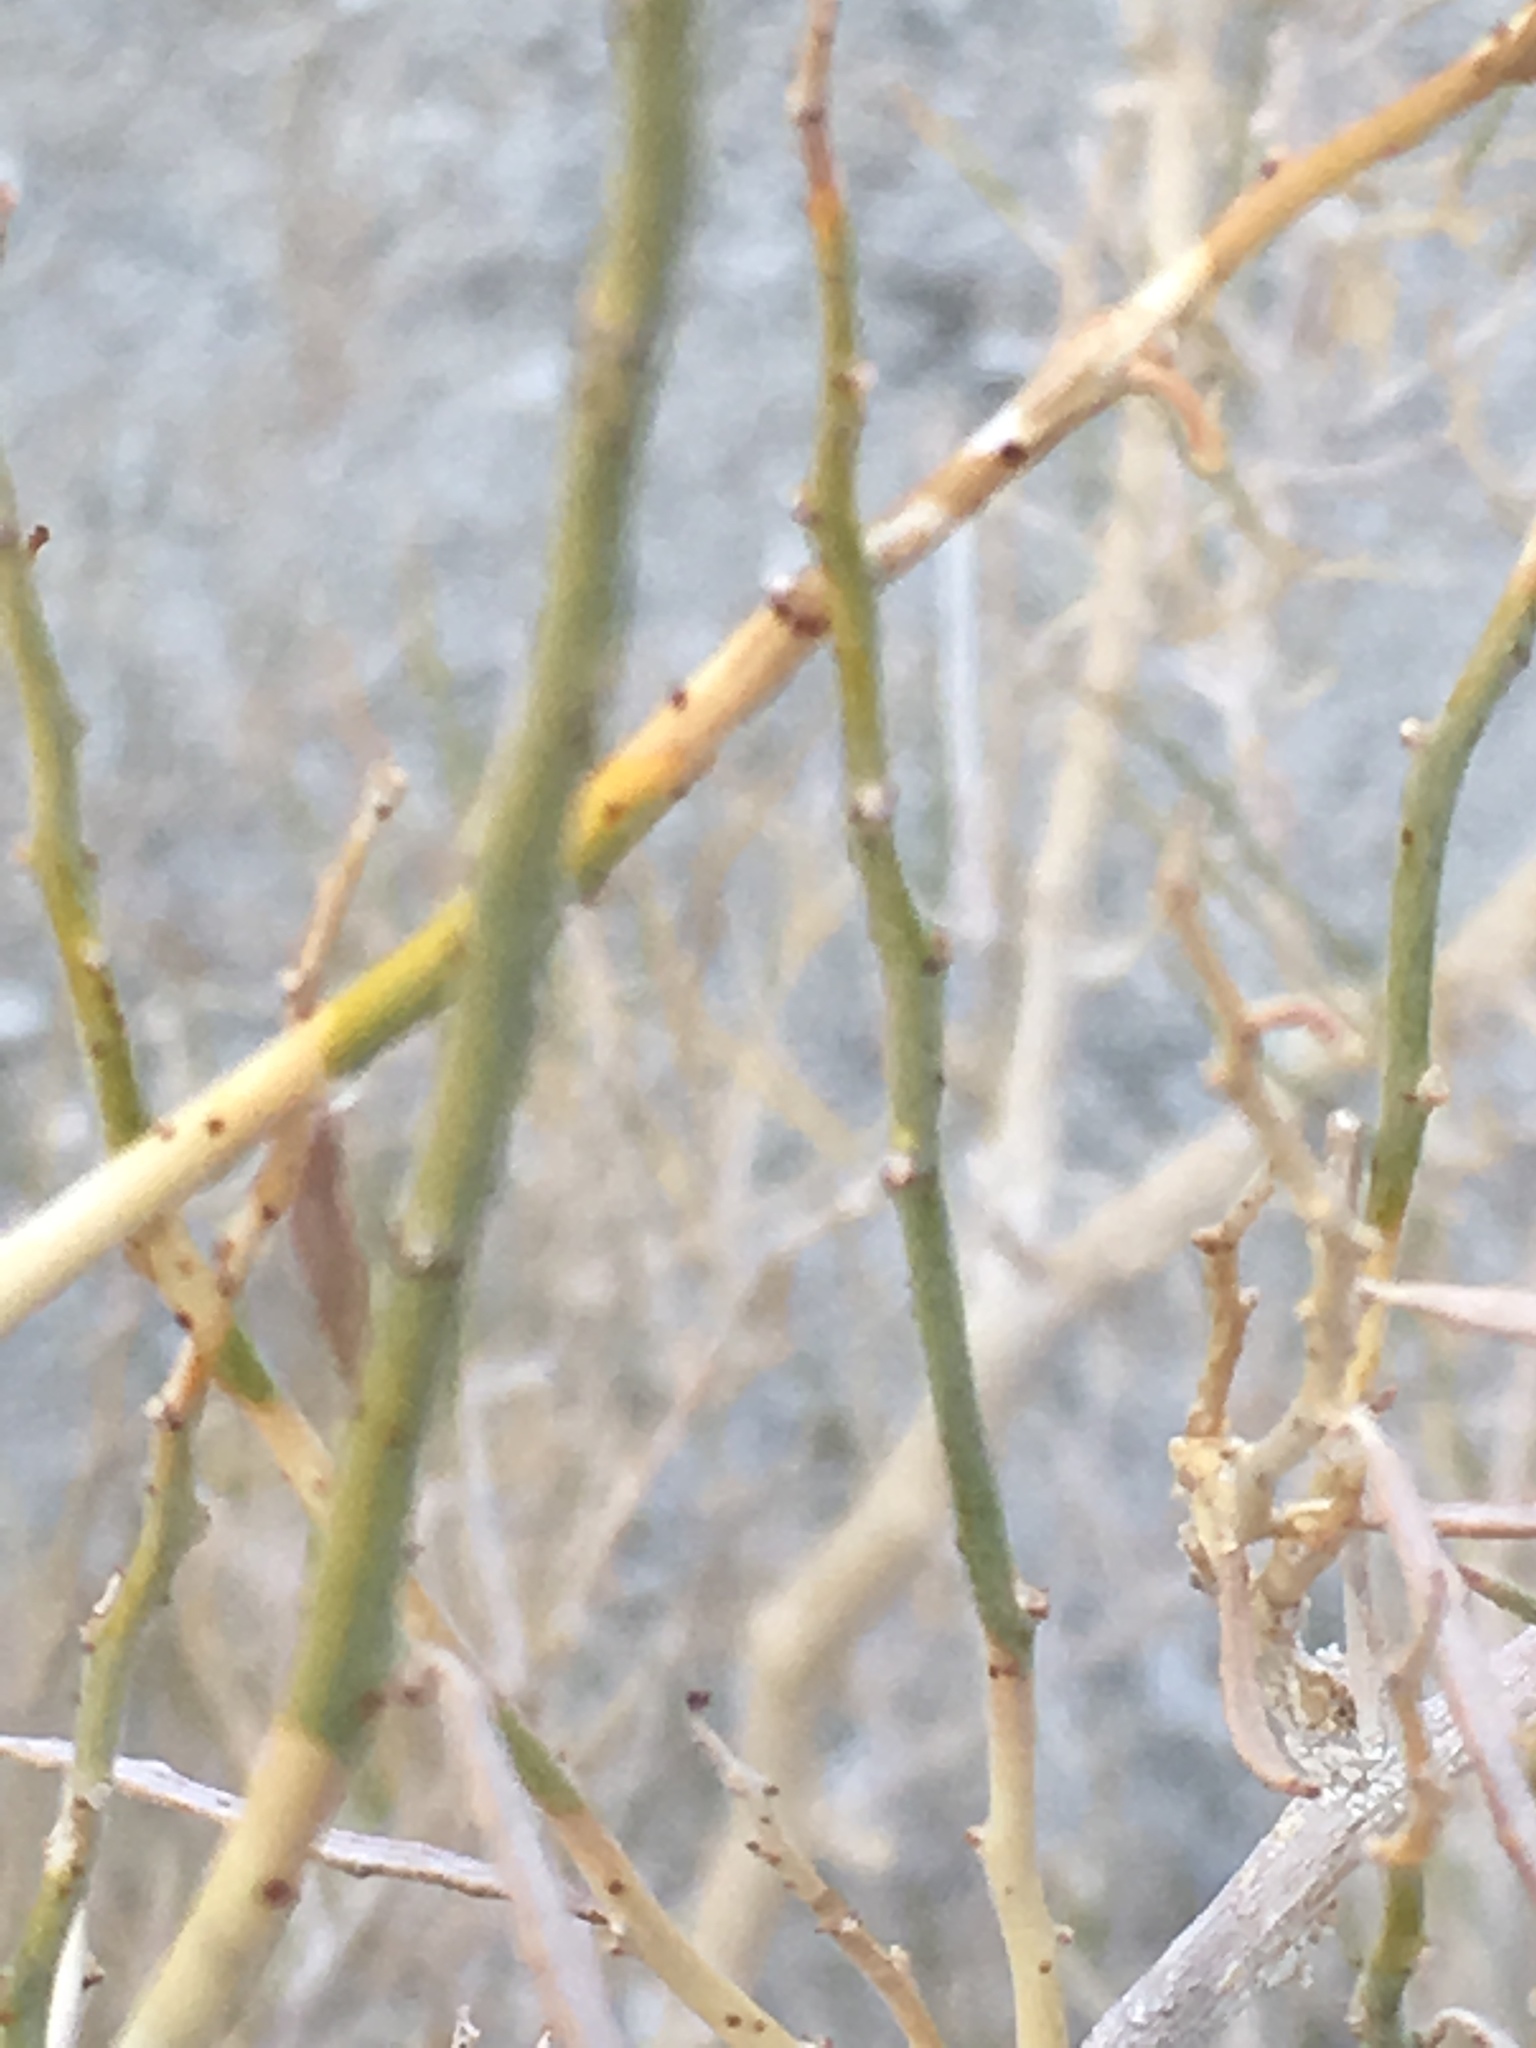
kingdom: Plantae
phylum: Tracheophyta
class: Magnoliopsida
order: Fabales
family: Fabaceae
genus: Psorothamnus
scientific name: Psorothamnus schottii
